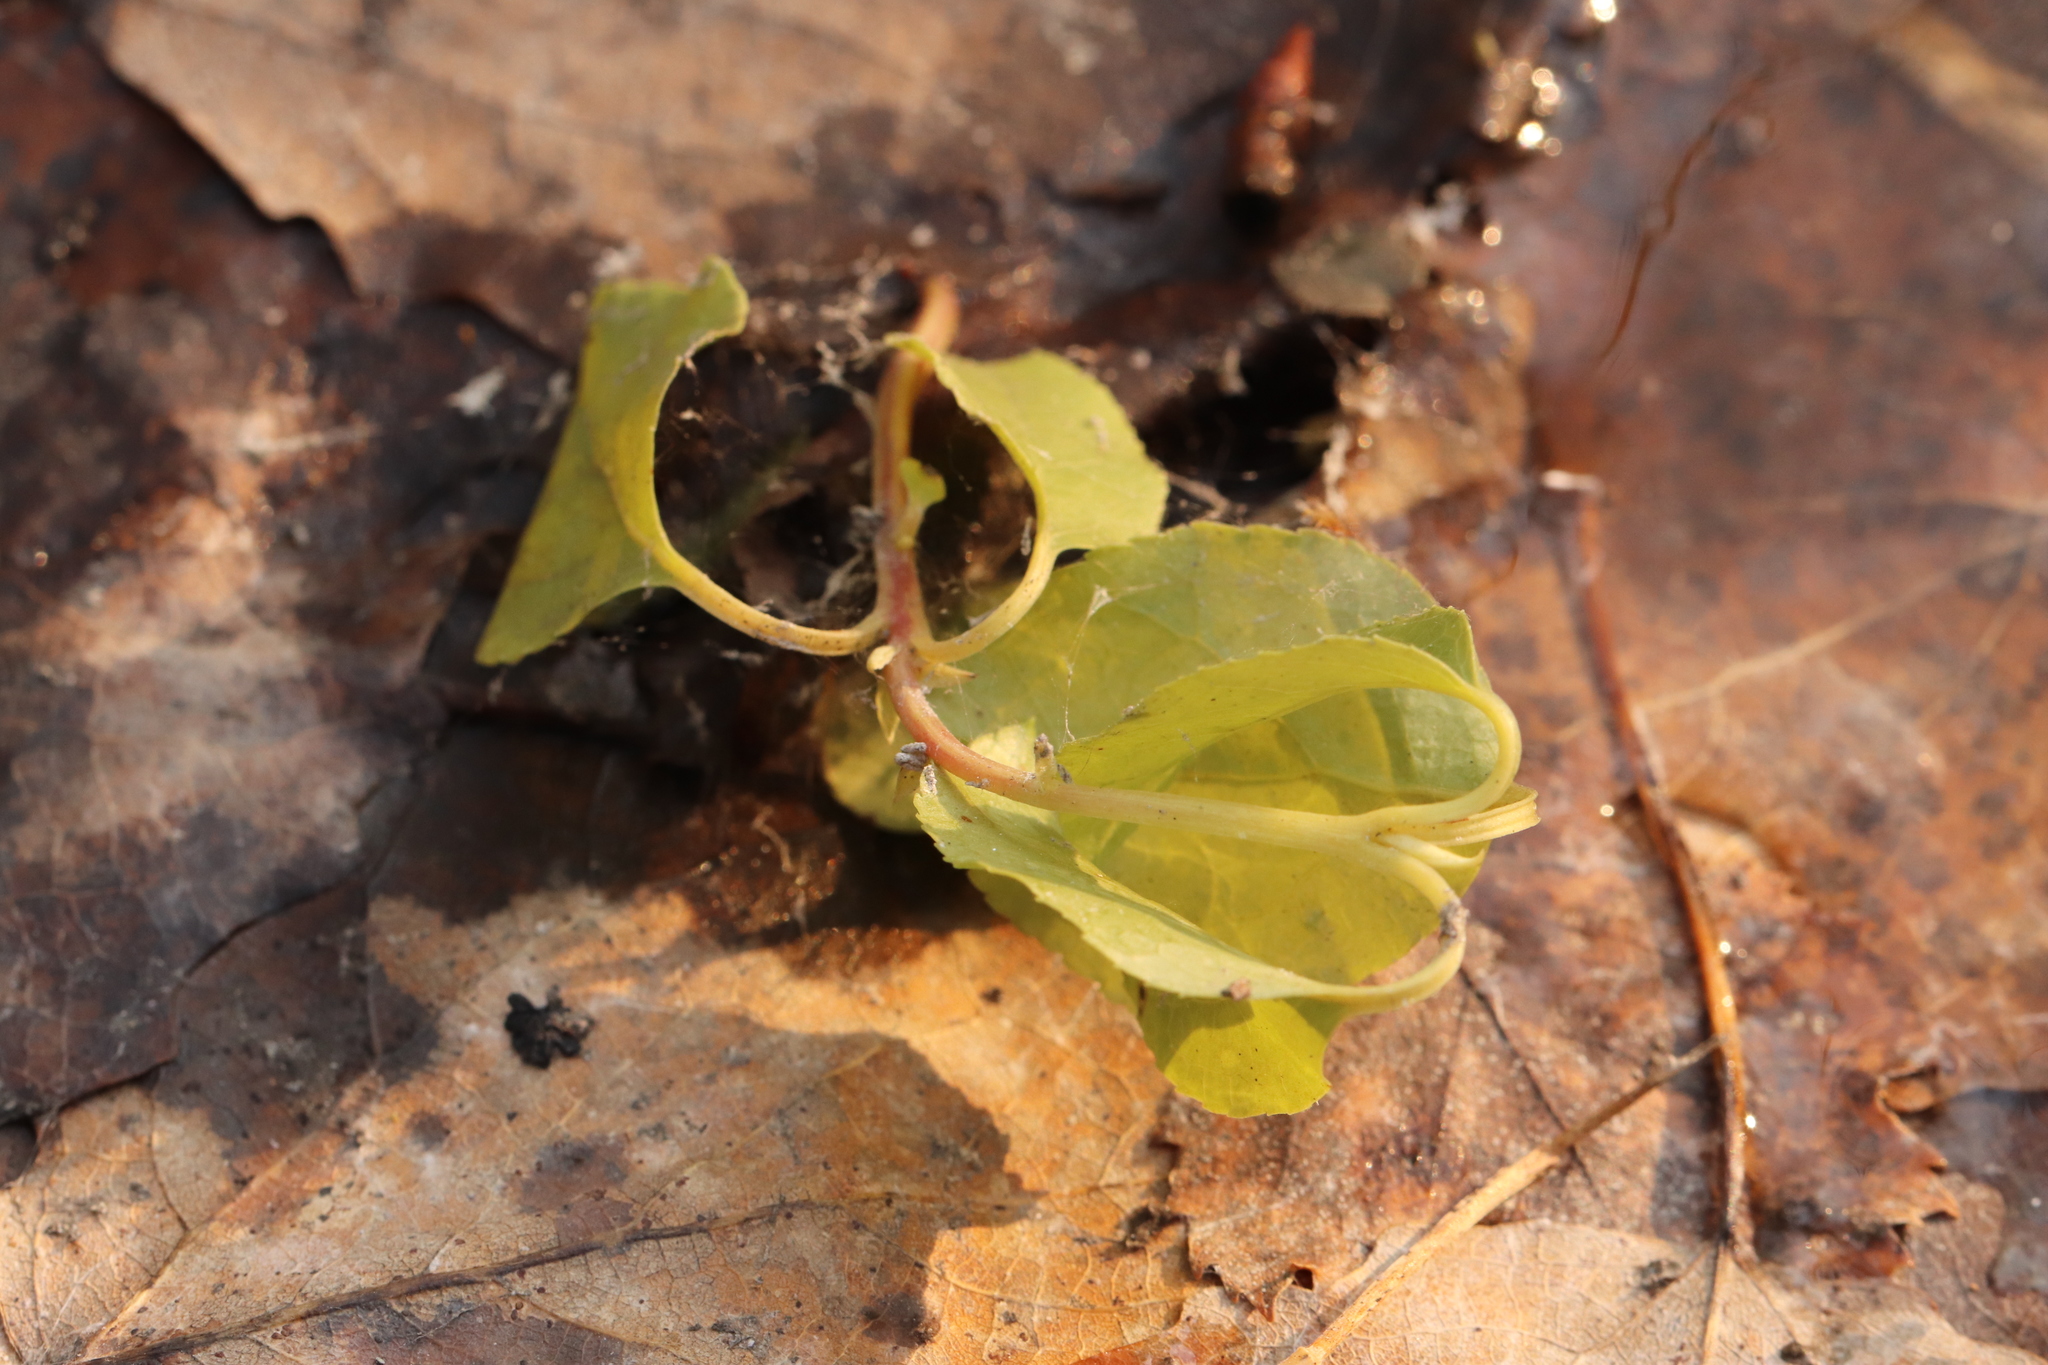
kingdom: Plantae
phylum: Tracheophyta
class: Magnoliopsida
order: Ericales
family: Ericaceae
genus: Orthilia
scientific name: Orthilia secunda
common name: One-sided orthilia
